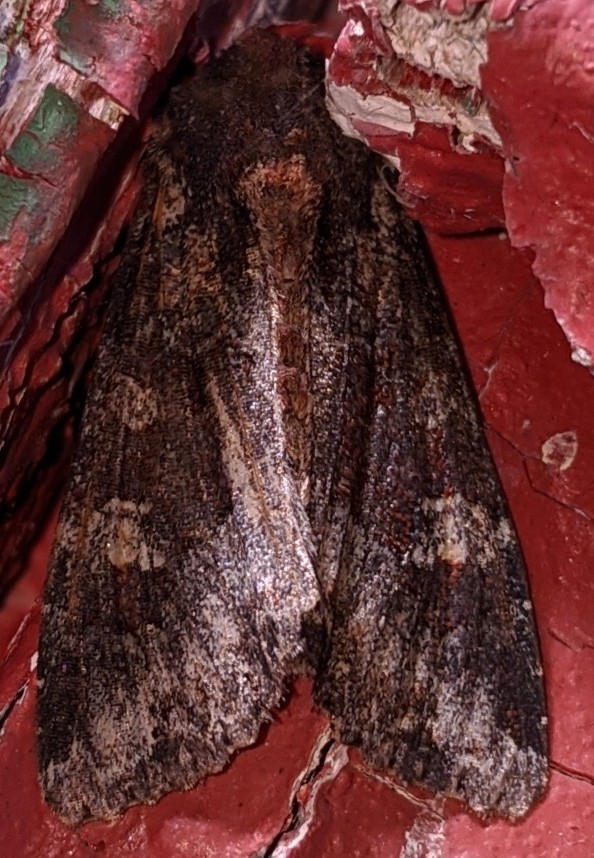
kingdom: Animalia
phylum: Arthropoda
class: Insecta
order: Lepidoptera
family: Noctuidae
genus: Apamea
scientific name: Apamea amputatrix
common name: Yellow-headed cutworm moth
